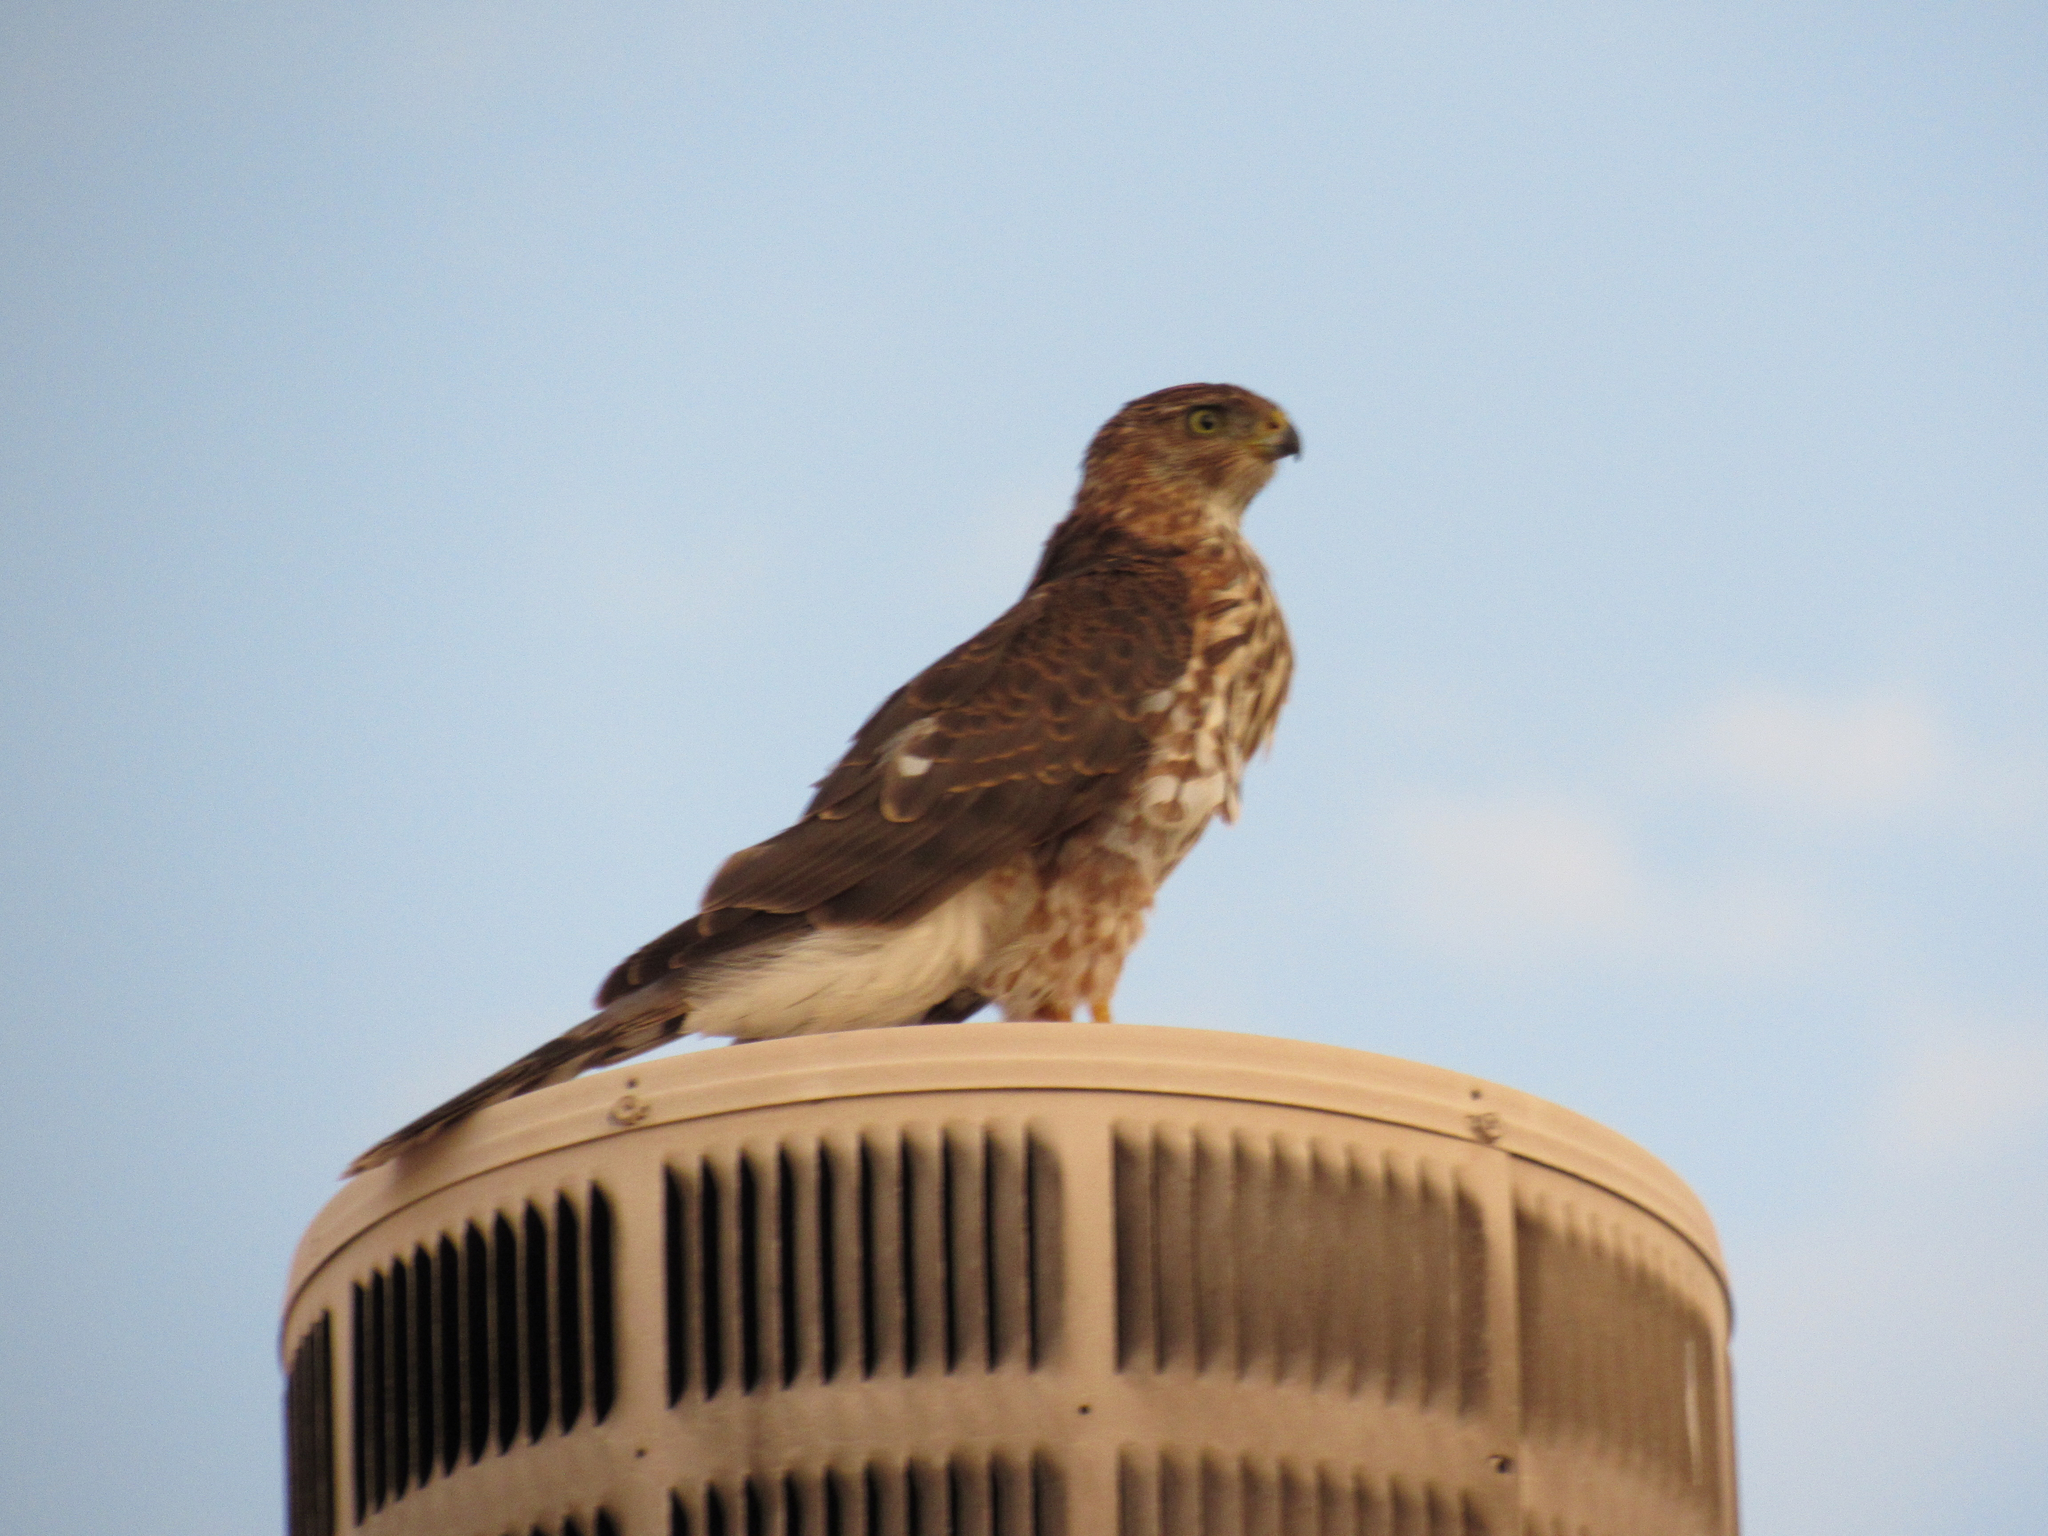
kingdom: Animalia
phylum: Chordata
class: Aves
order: Accipitriformes
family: Accipitridae
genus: Accipiter
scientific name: Accipiter cooperii
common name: Cooper's hawk
